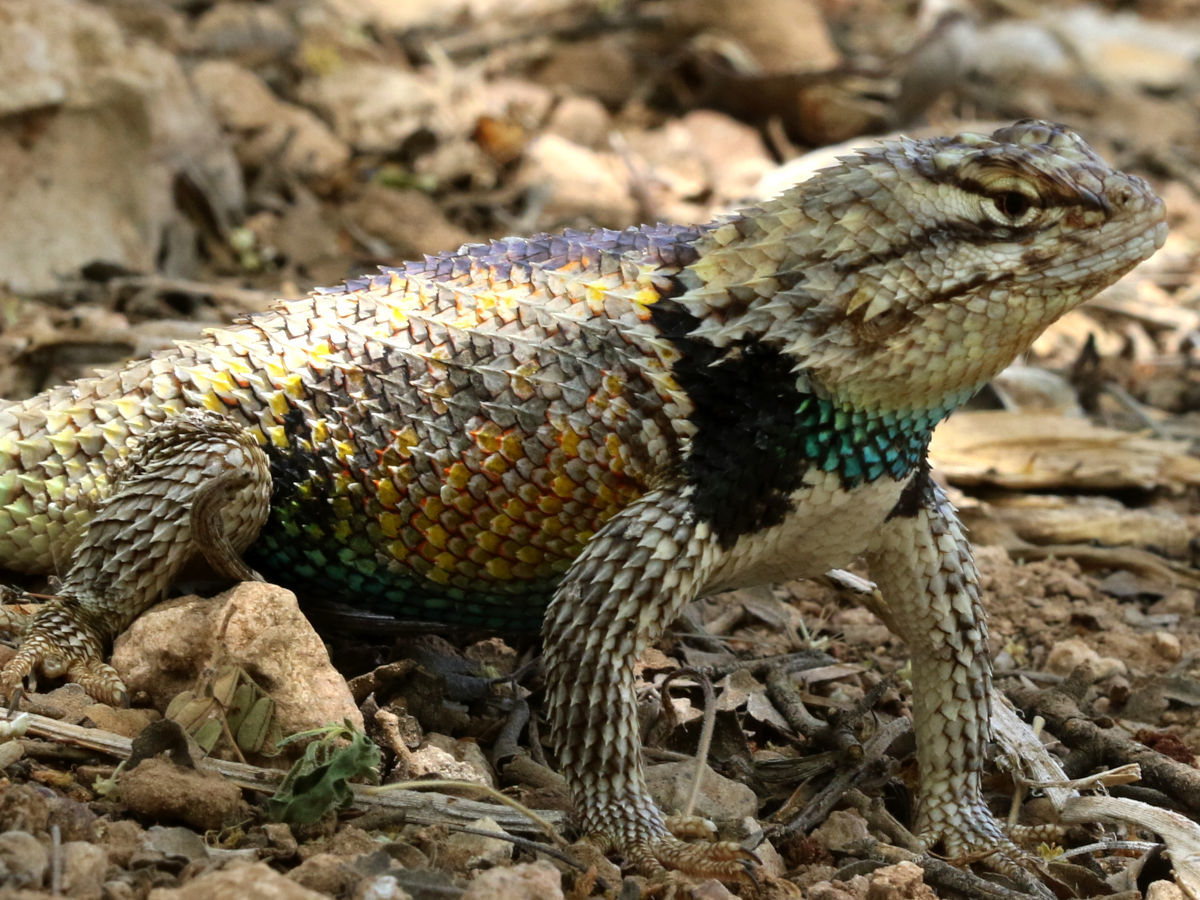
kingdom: Animalia
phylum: Chordata
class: Squamata
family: Phrynosomatidae
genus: Sceloporus
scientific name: Sceloporus magister
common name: Desert spiny lizard
